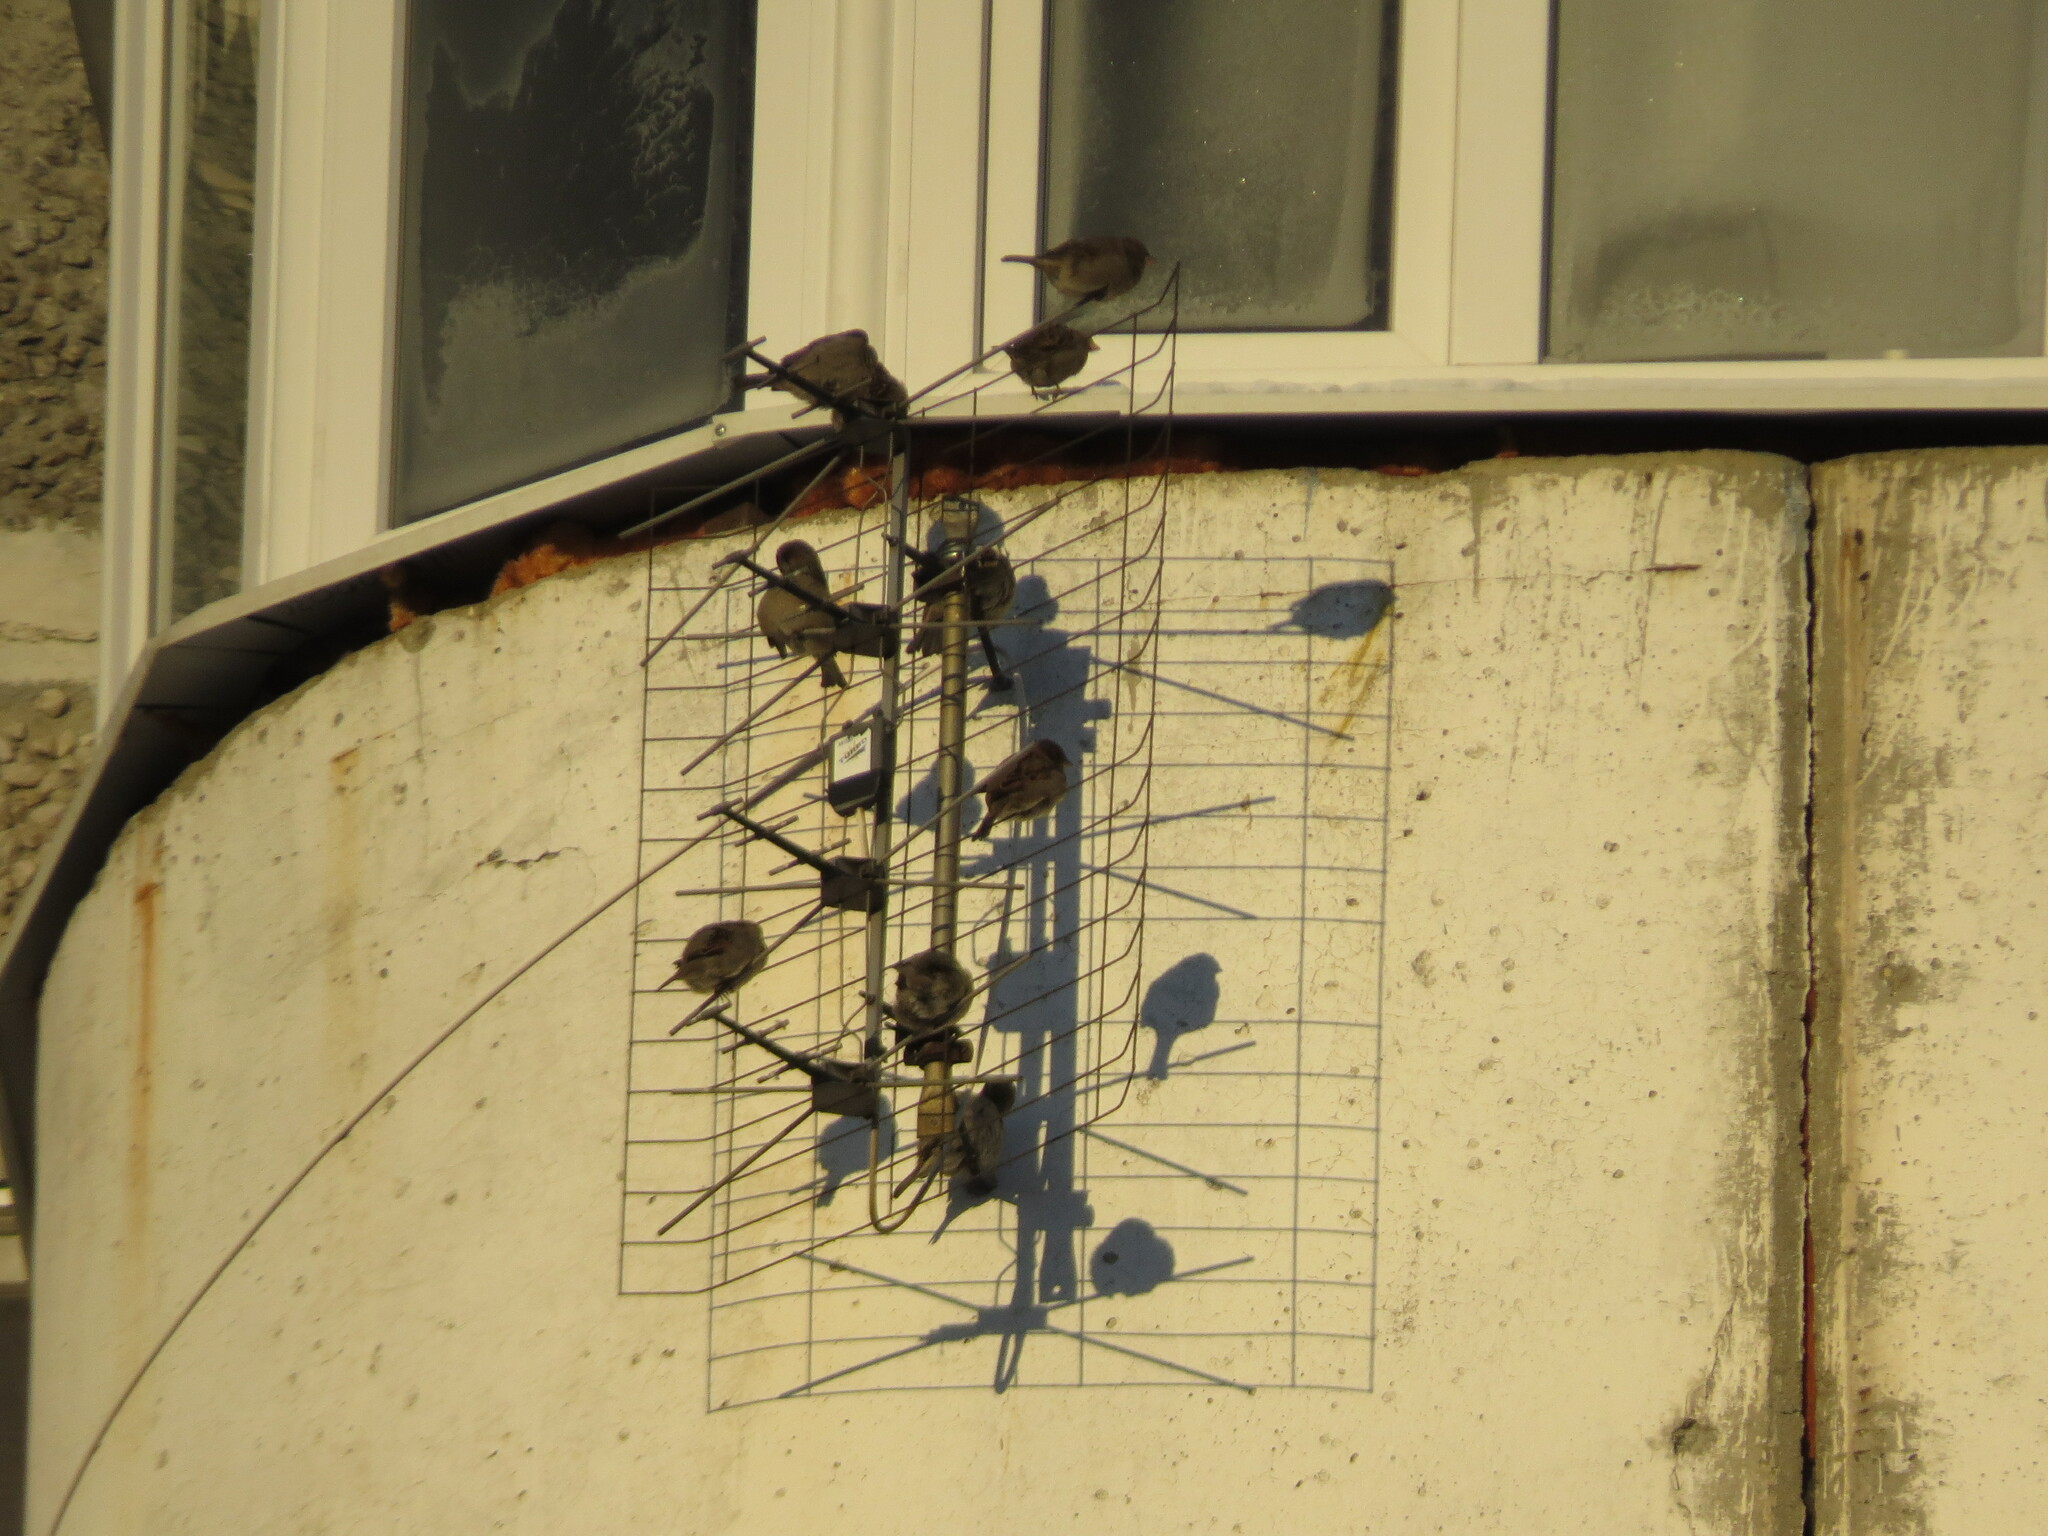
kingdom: Animalia
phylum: Chordata
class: Aves
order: Passeriformes
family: Passeridae
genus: Passer
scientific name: Passer domesticus
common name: House sparrow
